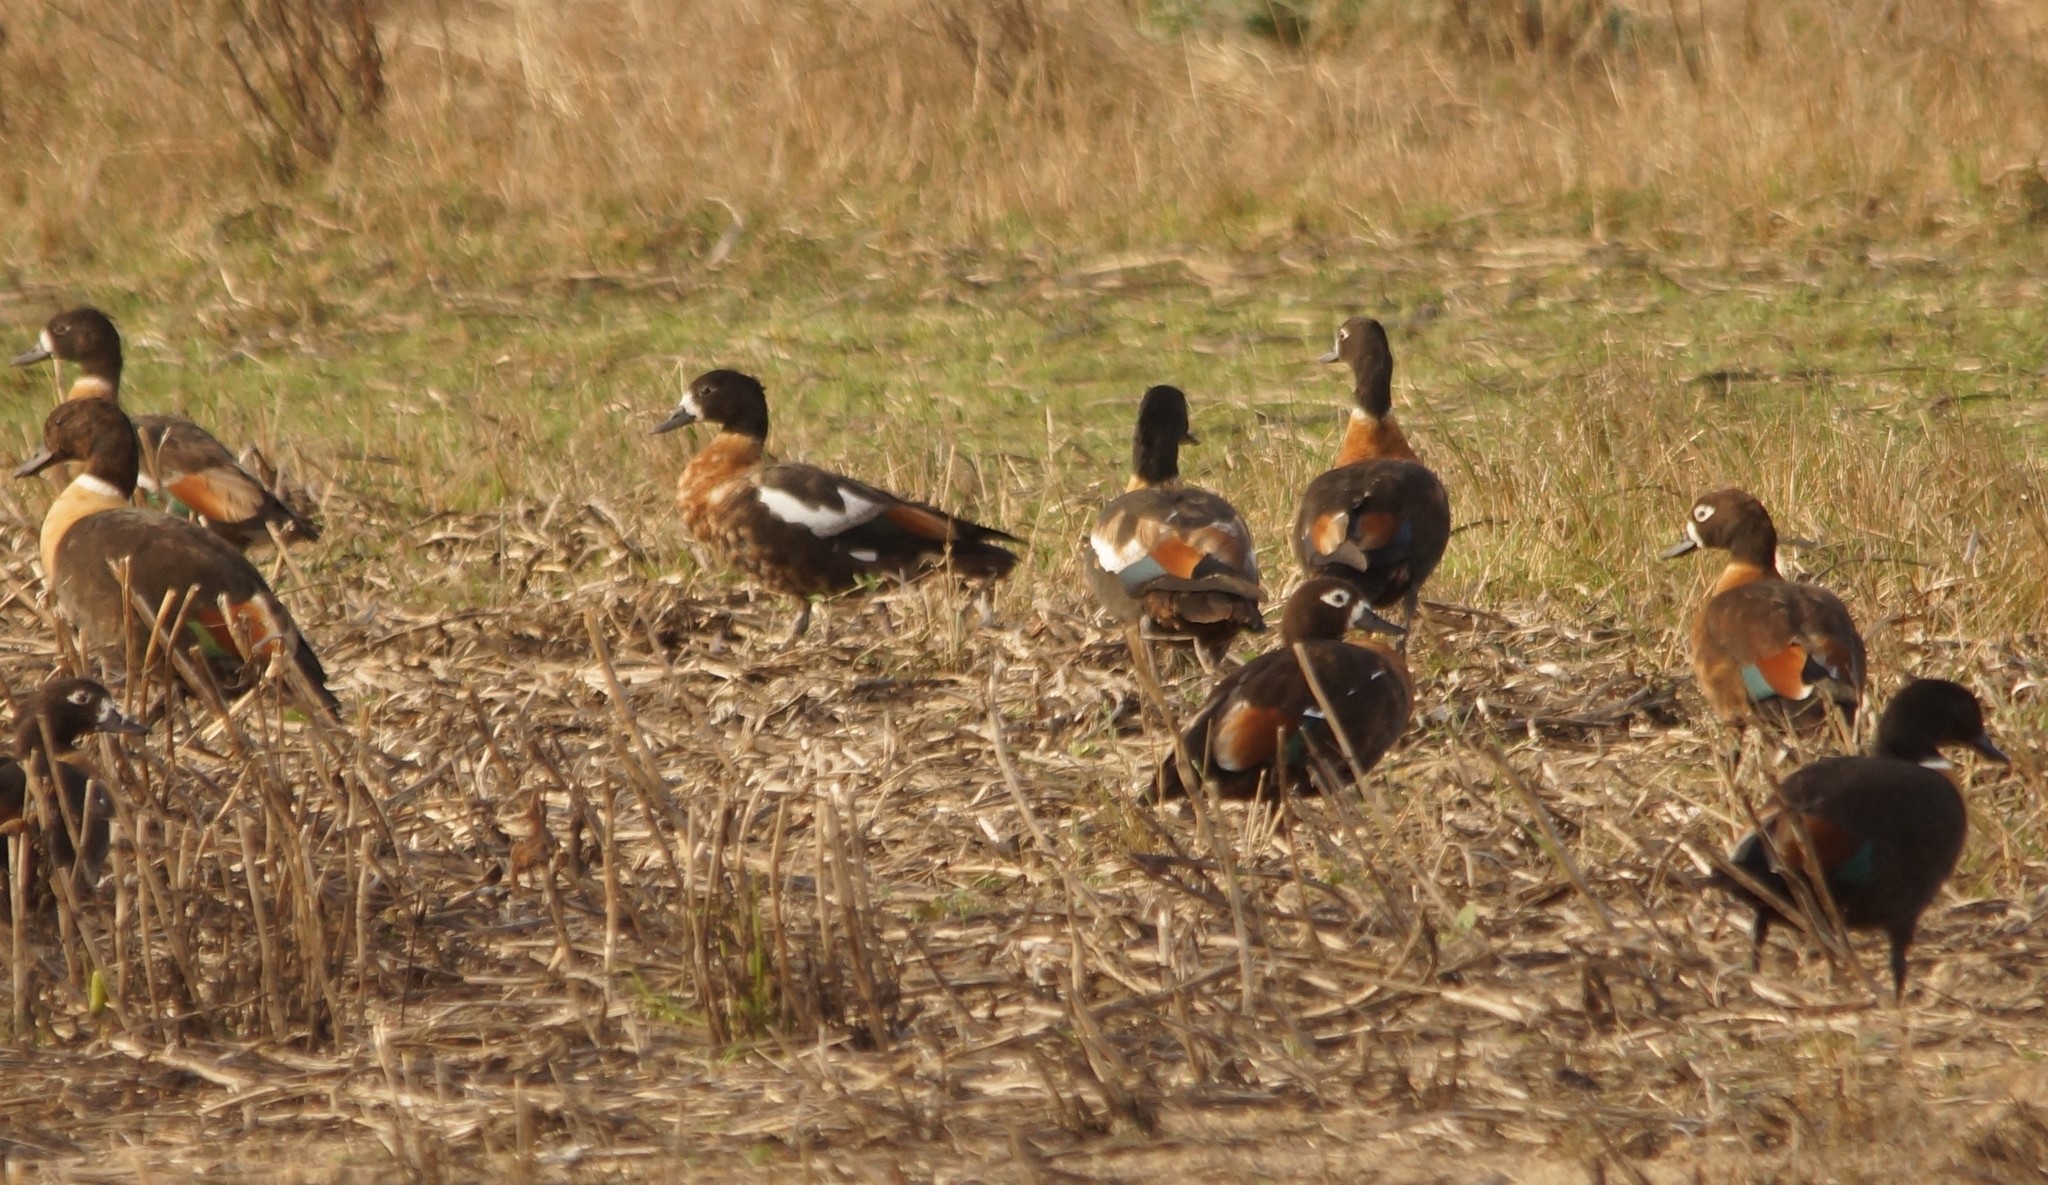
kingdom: Animalia
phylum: Chordata
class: Aves
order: Anseriformes
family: Anatidae
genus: Tadorna
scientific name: Tadorna tadornoides
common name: Australian shelduck
